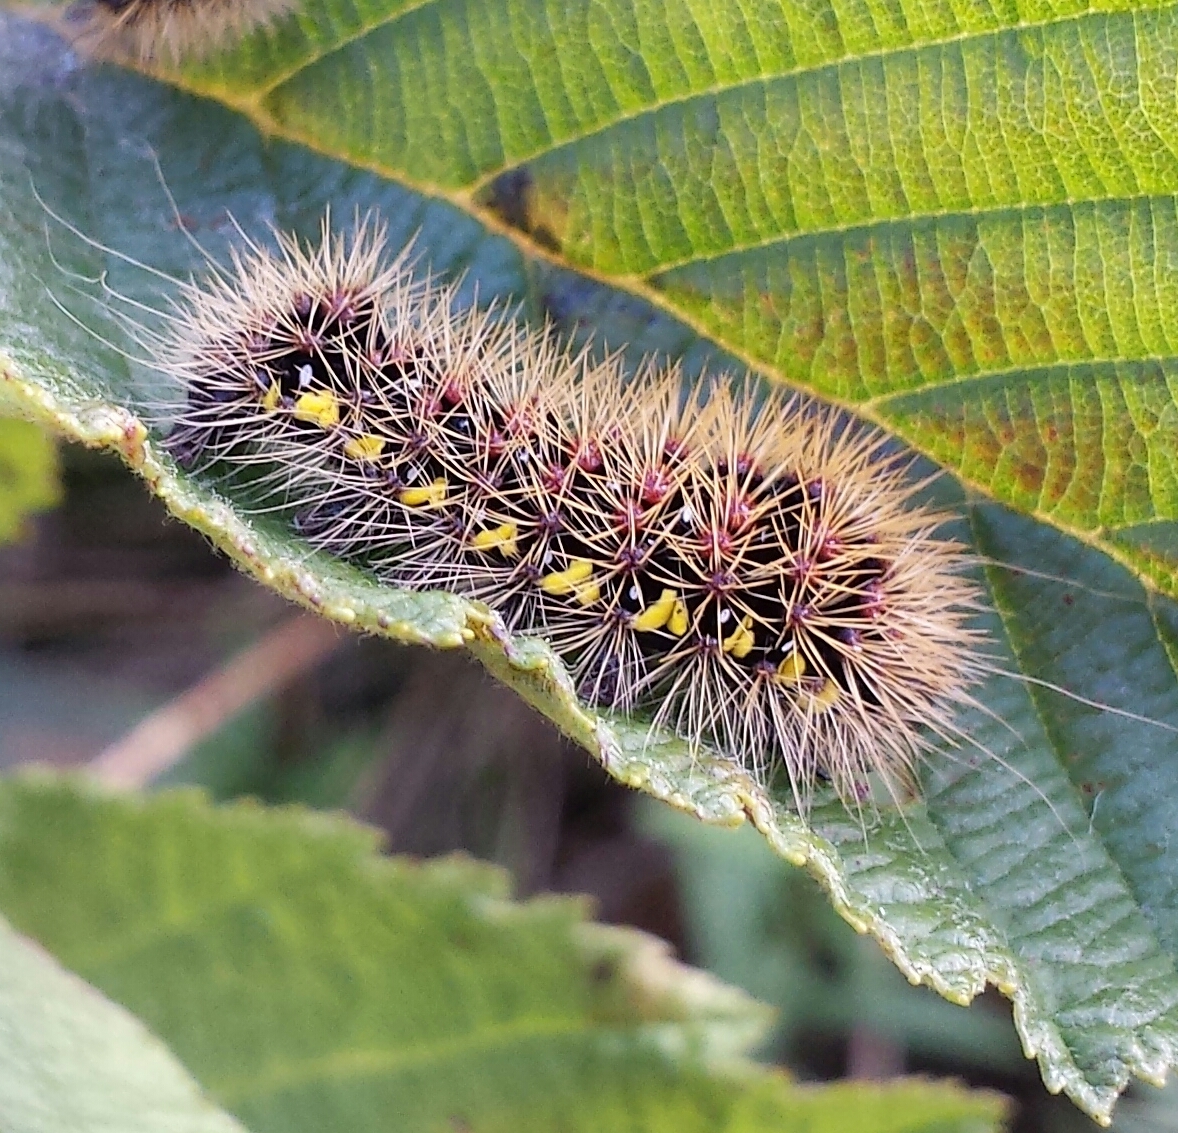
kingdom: Animalia
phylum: Arthropoda
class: Insecta
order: Lepidoptera
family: Noctuidae
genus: Acronicta
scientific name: Acronicta oblinita
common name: Smeared dagger
